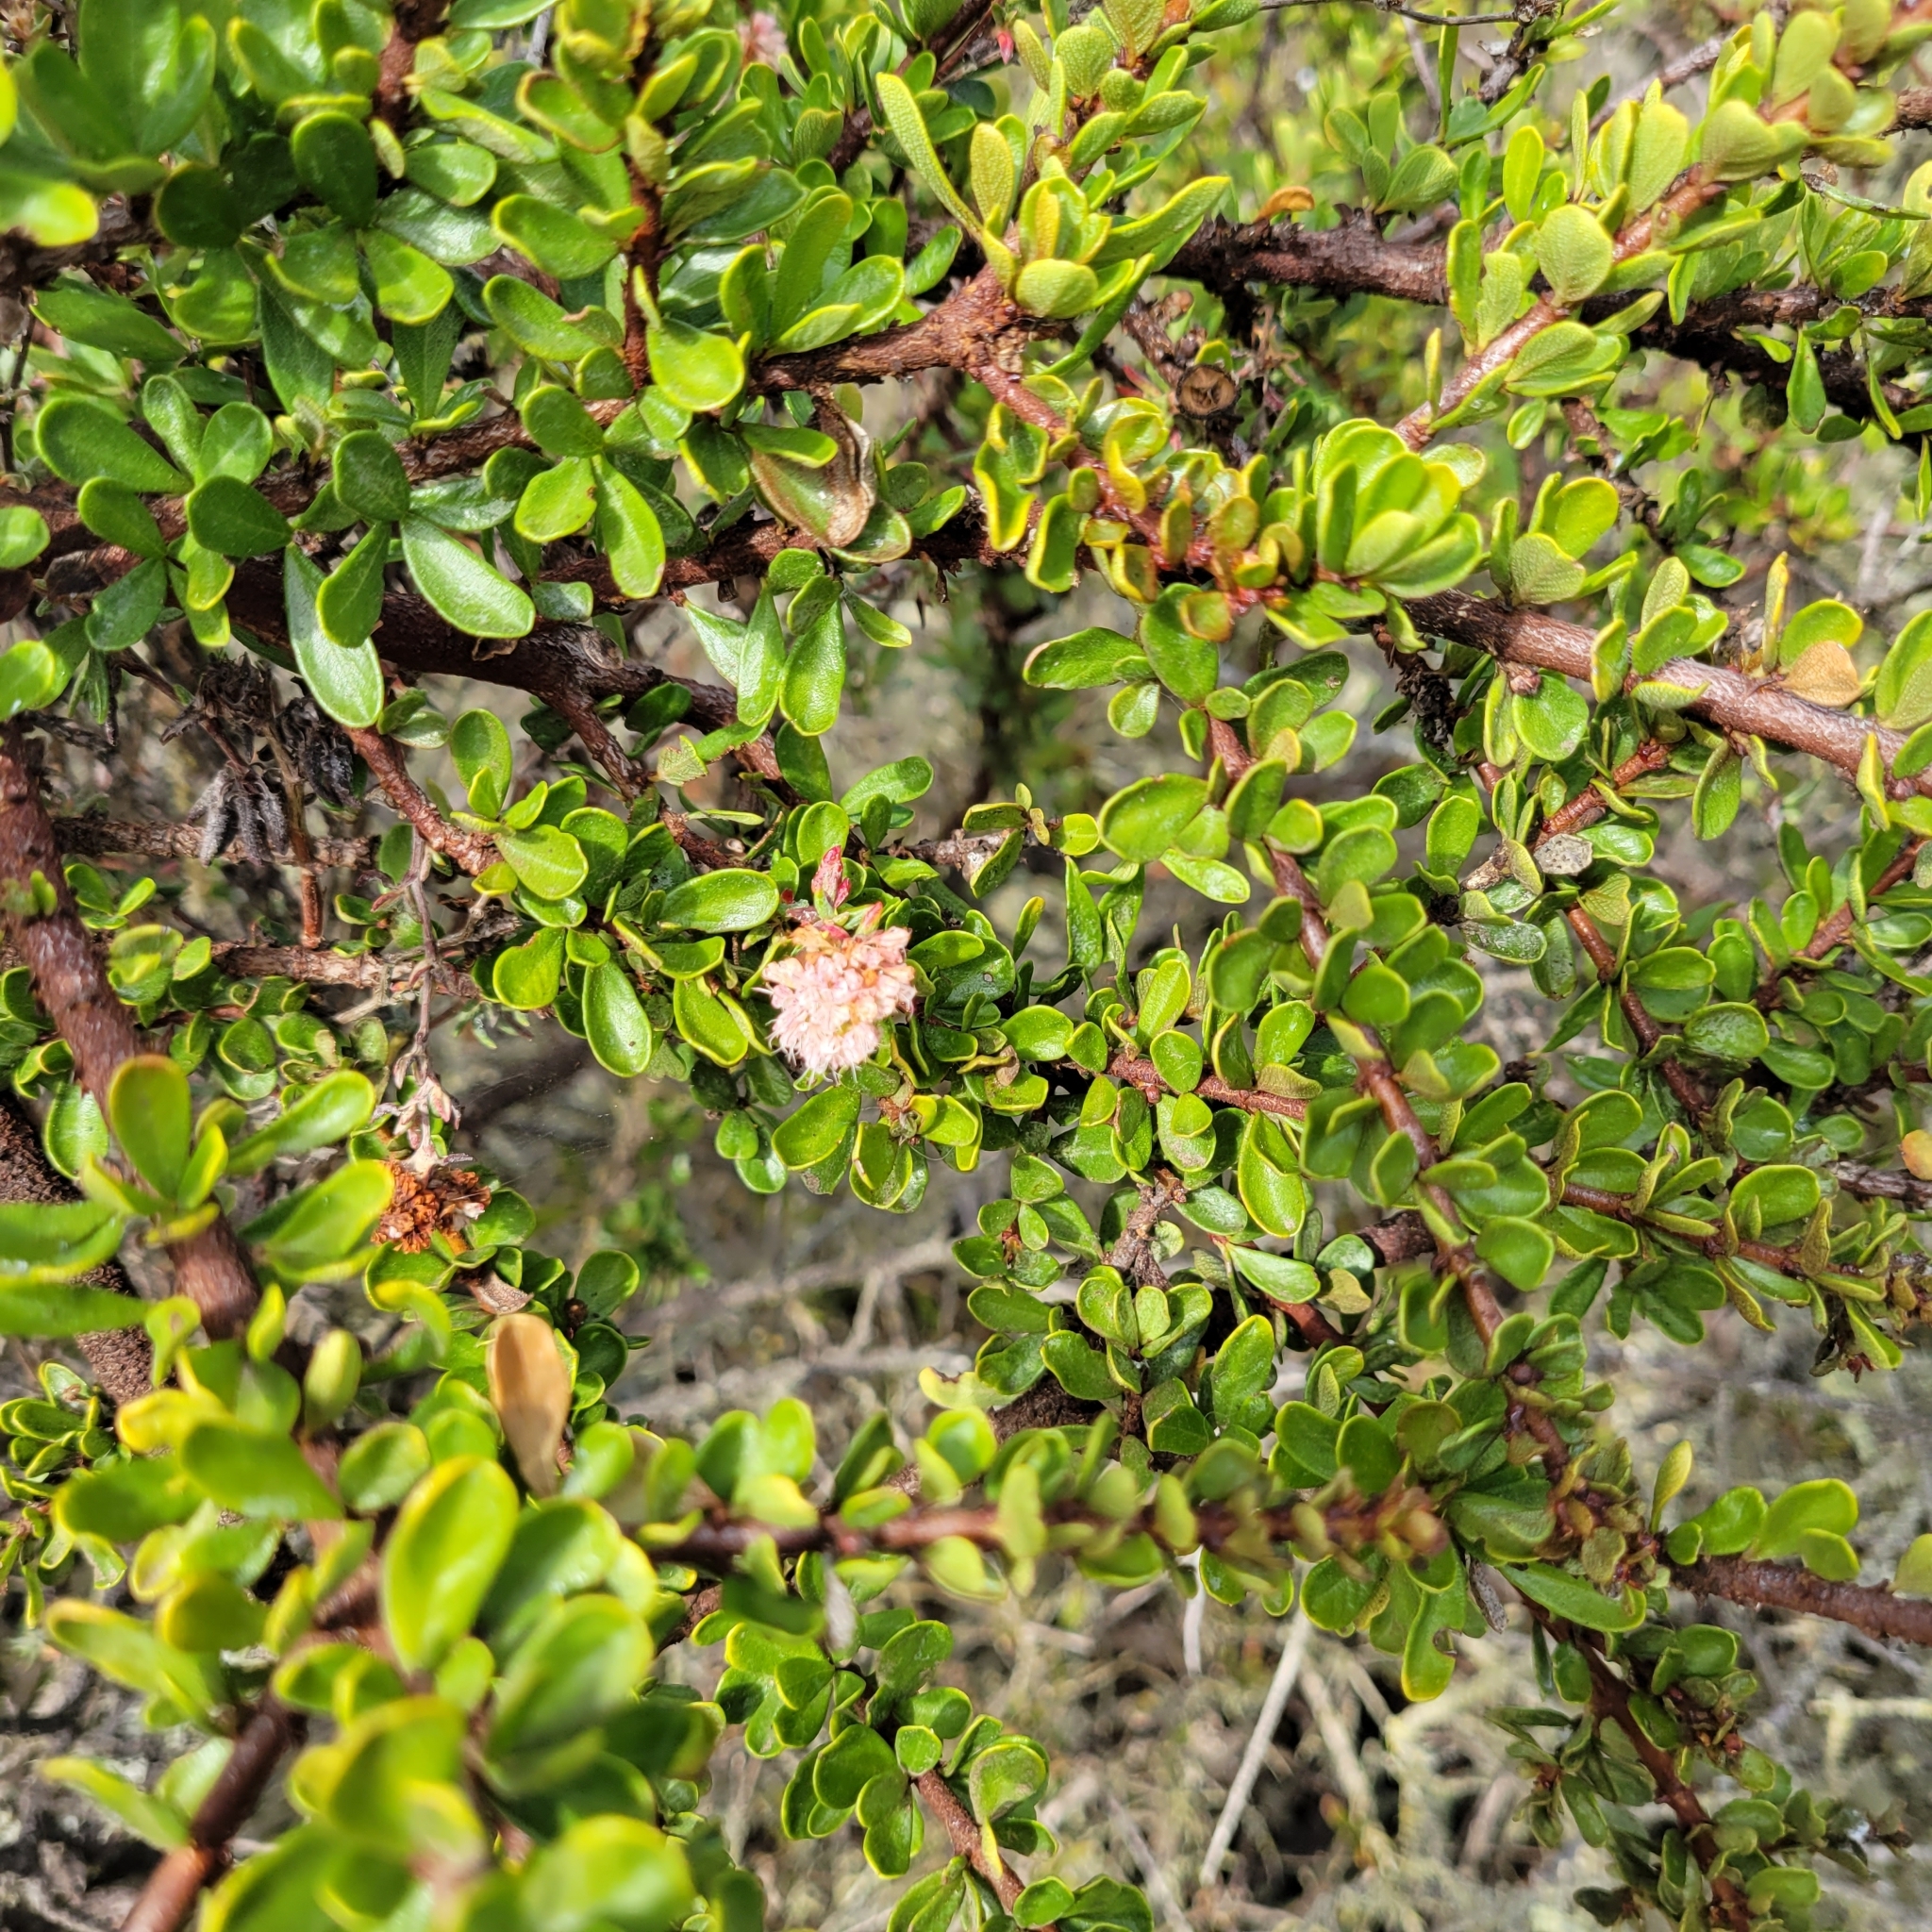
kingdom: Plantae
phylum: Tracheophyta
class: Magnoliopsida
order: Rosales
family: Rhamnaceae
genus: Ceanothus
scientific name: Ceanothus cuneatus
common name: Cuneate ceanothus
